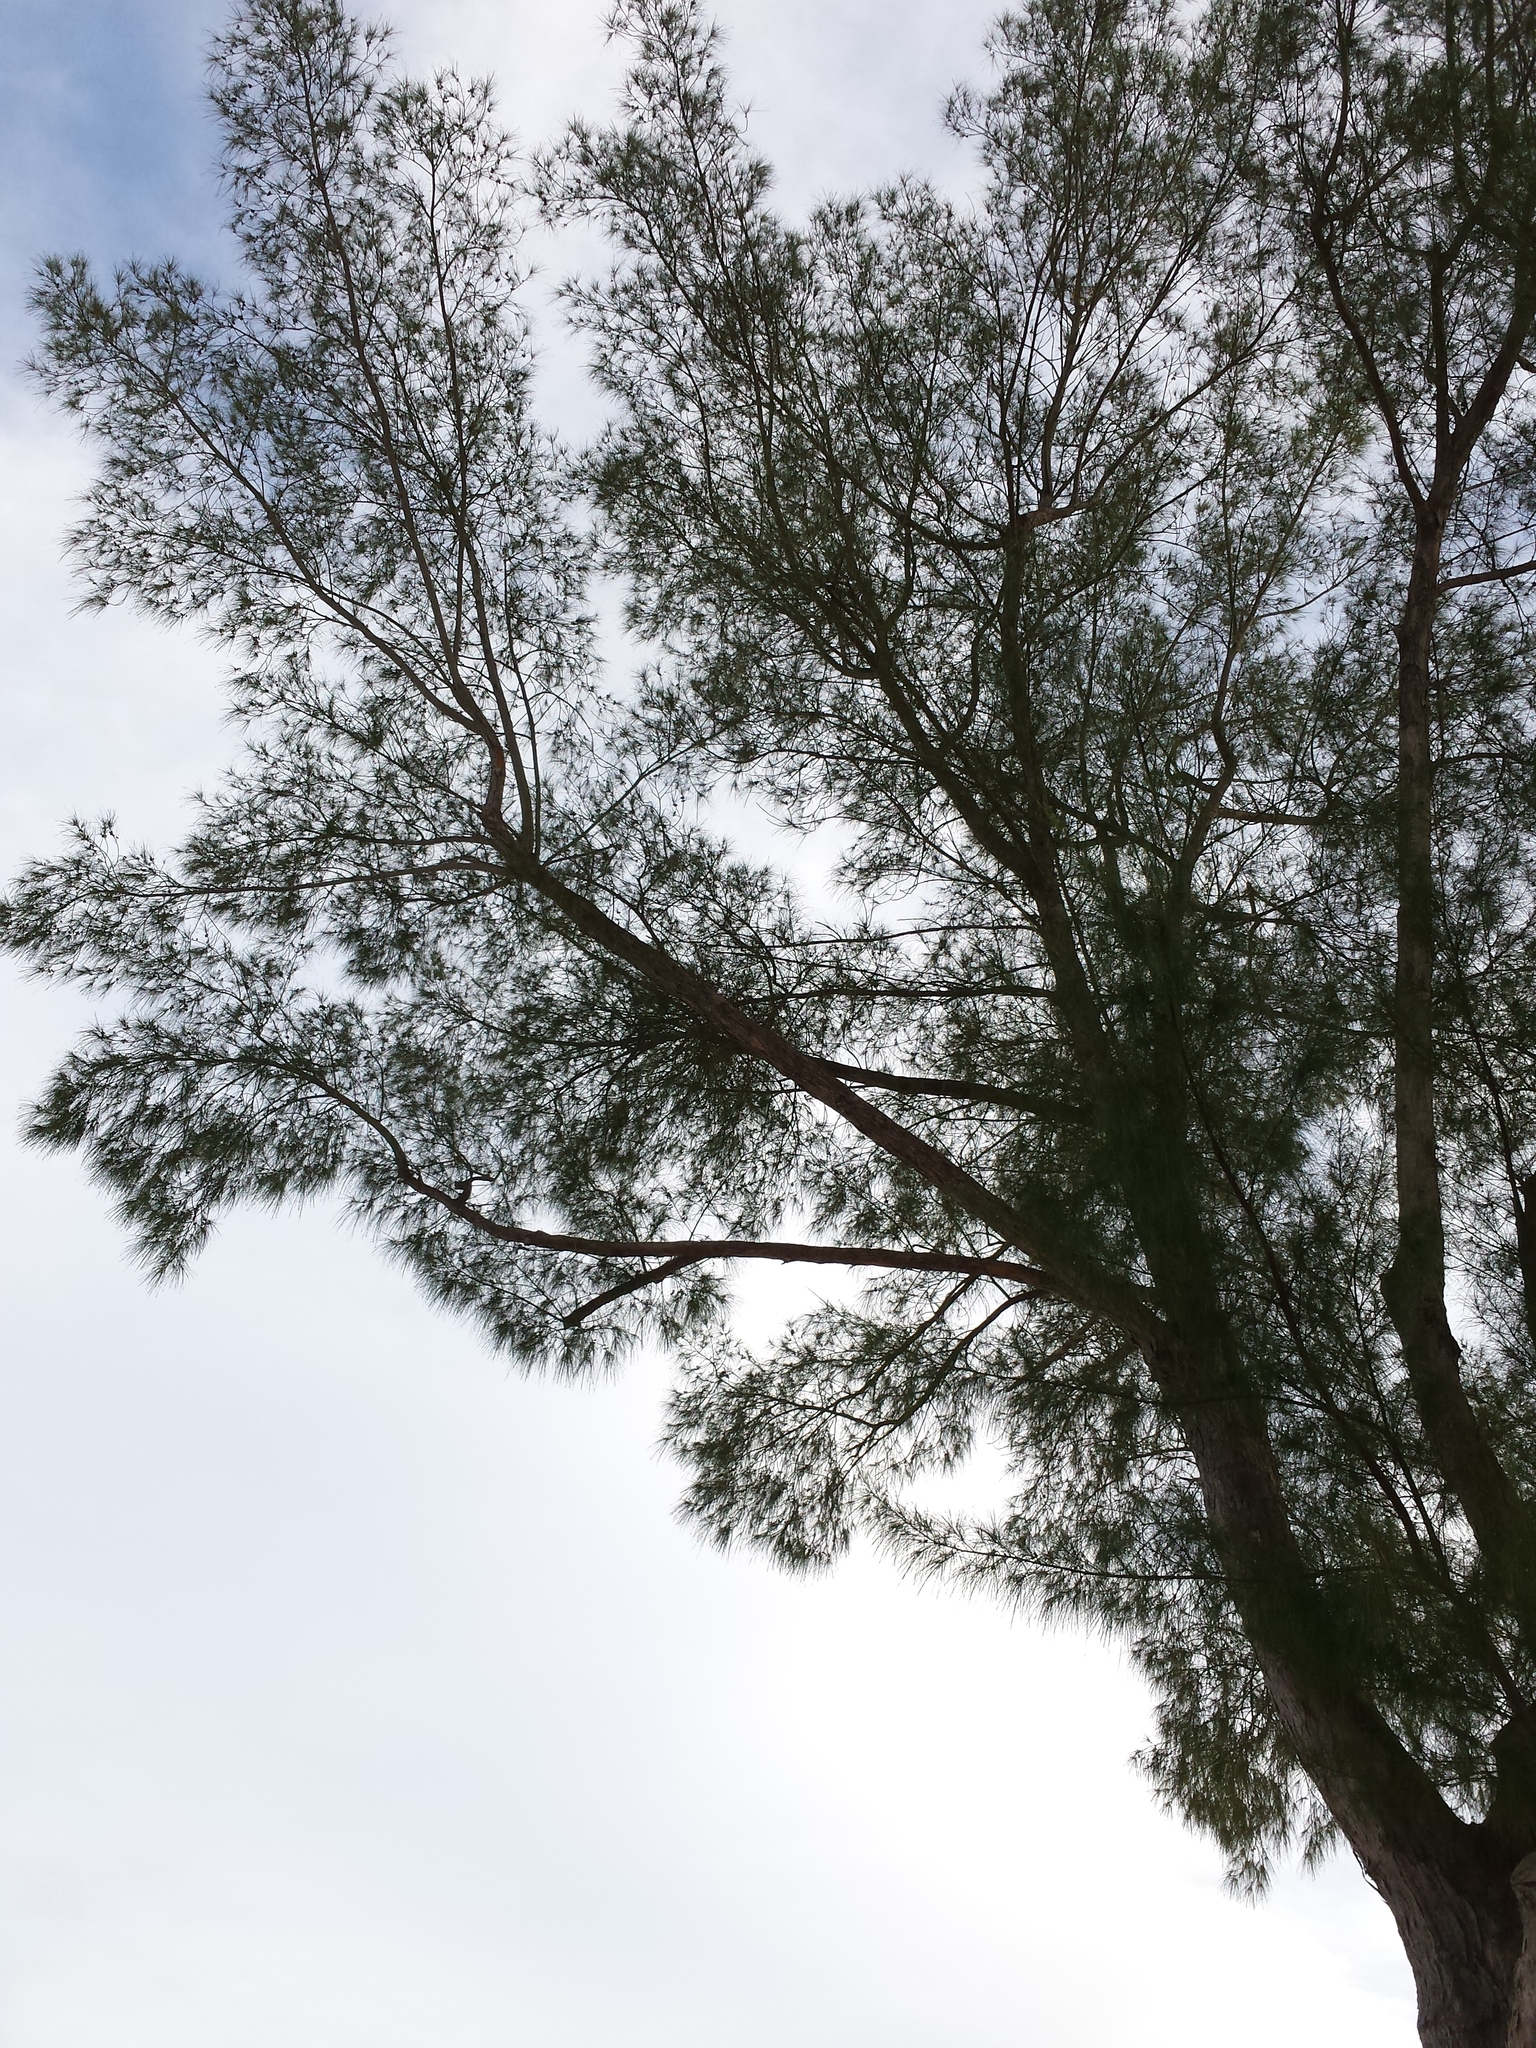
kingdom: Plantae
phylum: Tracheophyta
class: Magnoliopsida
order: Fagales
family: Casuarinaceae
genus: Casuarina
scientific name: Casuarina equisetifolia
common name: Beach sheoak
